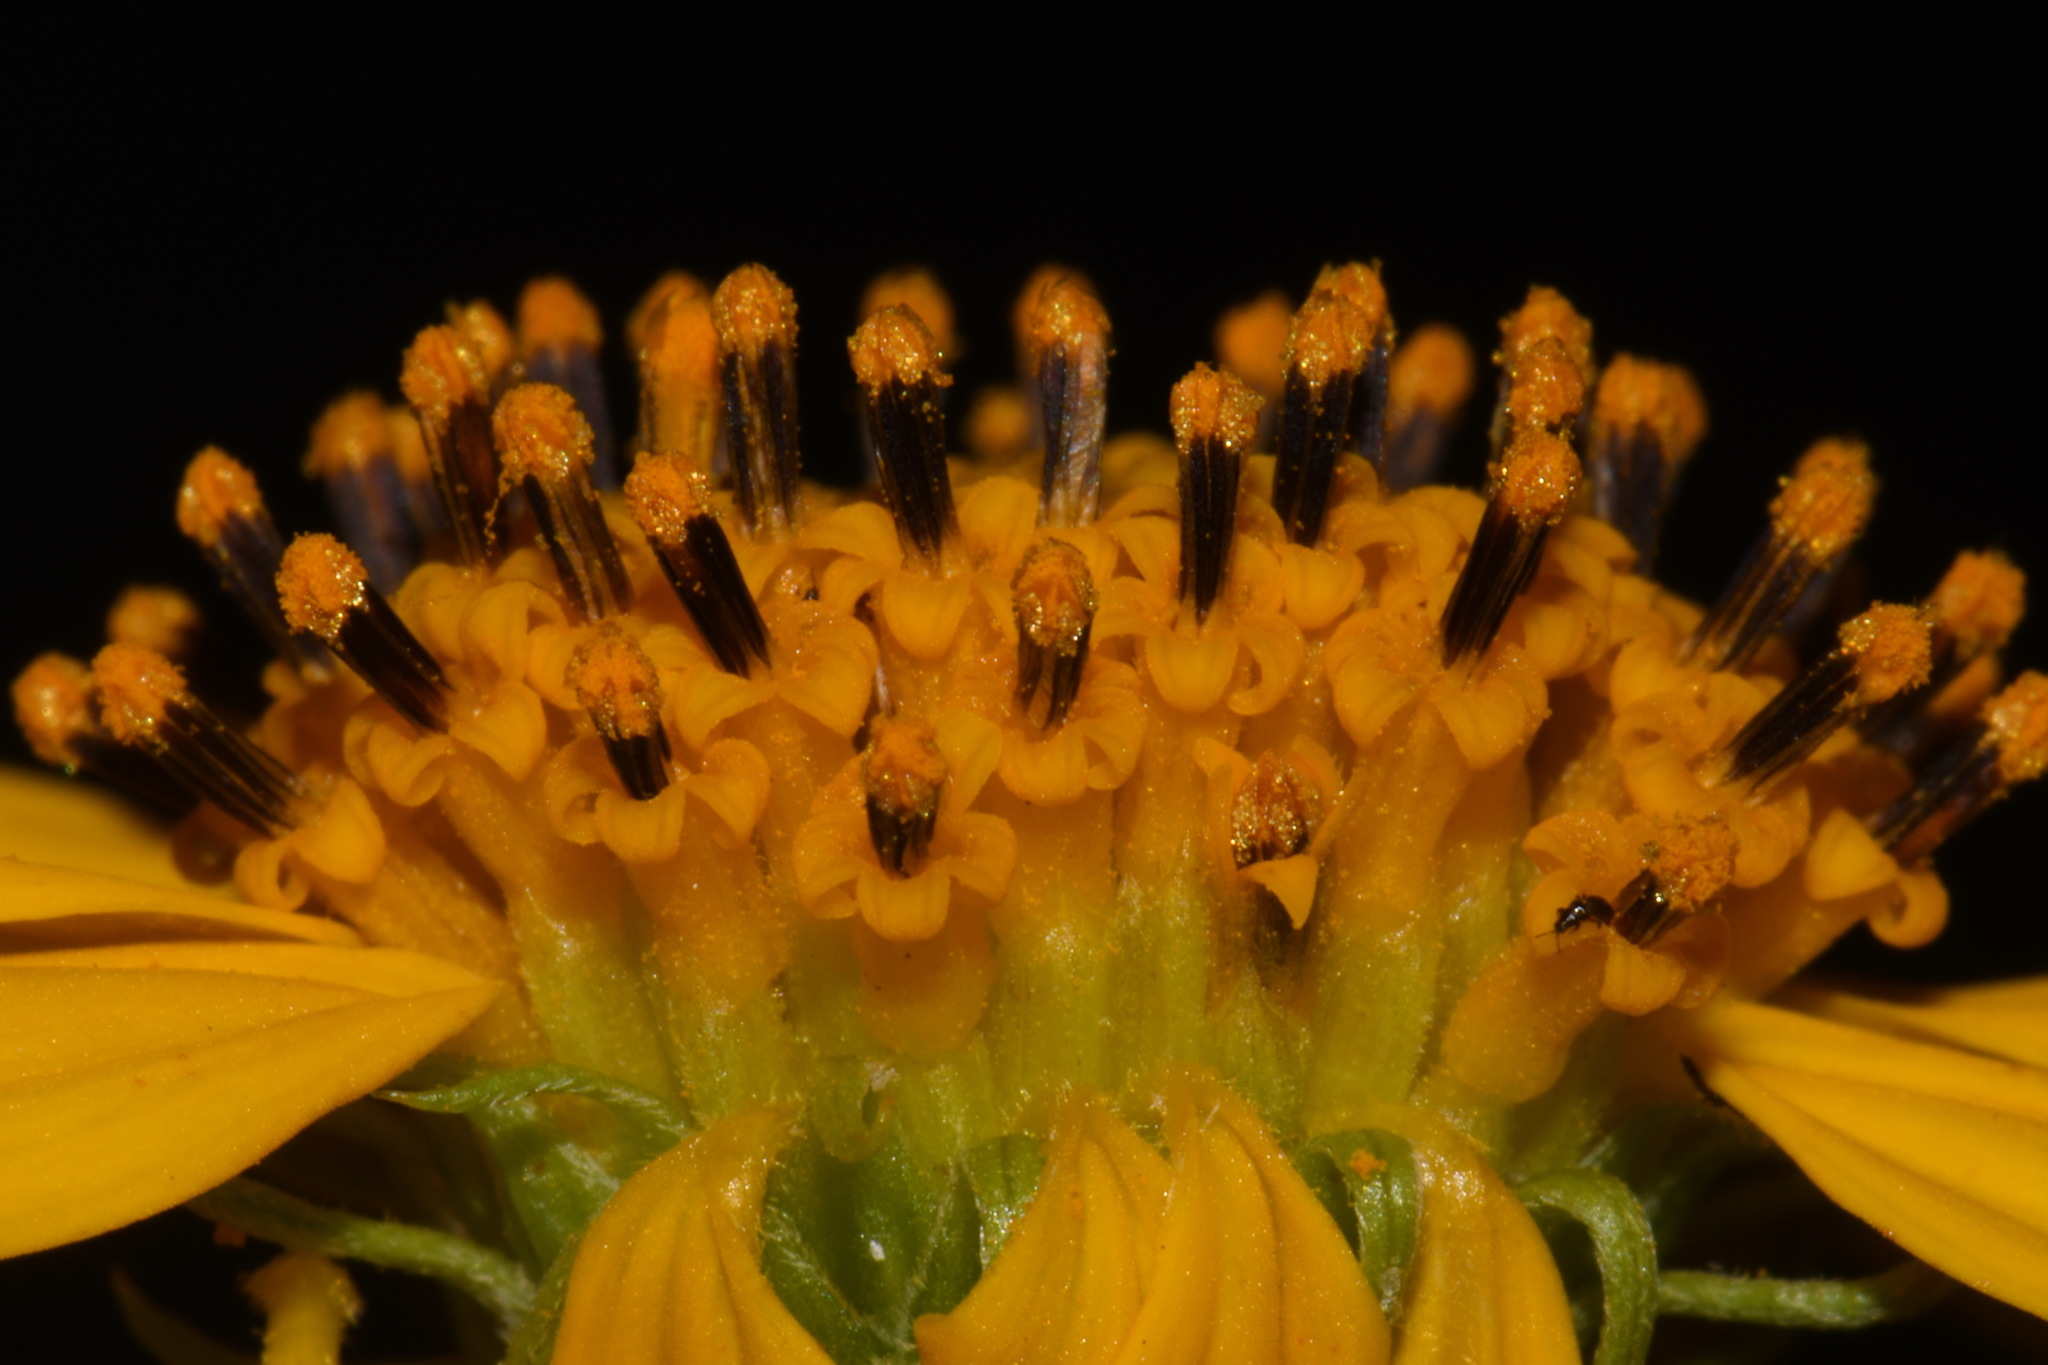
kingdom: Plantae
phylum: Tracheophyta
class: Magnoliopsida
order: Asterales
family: Asteraceae
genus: Sidneya
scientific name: Sidneya tenuifolia
